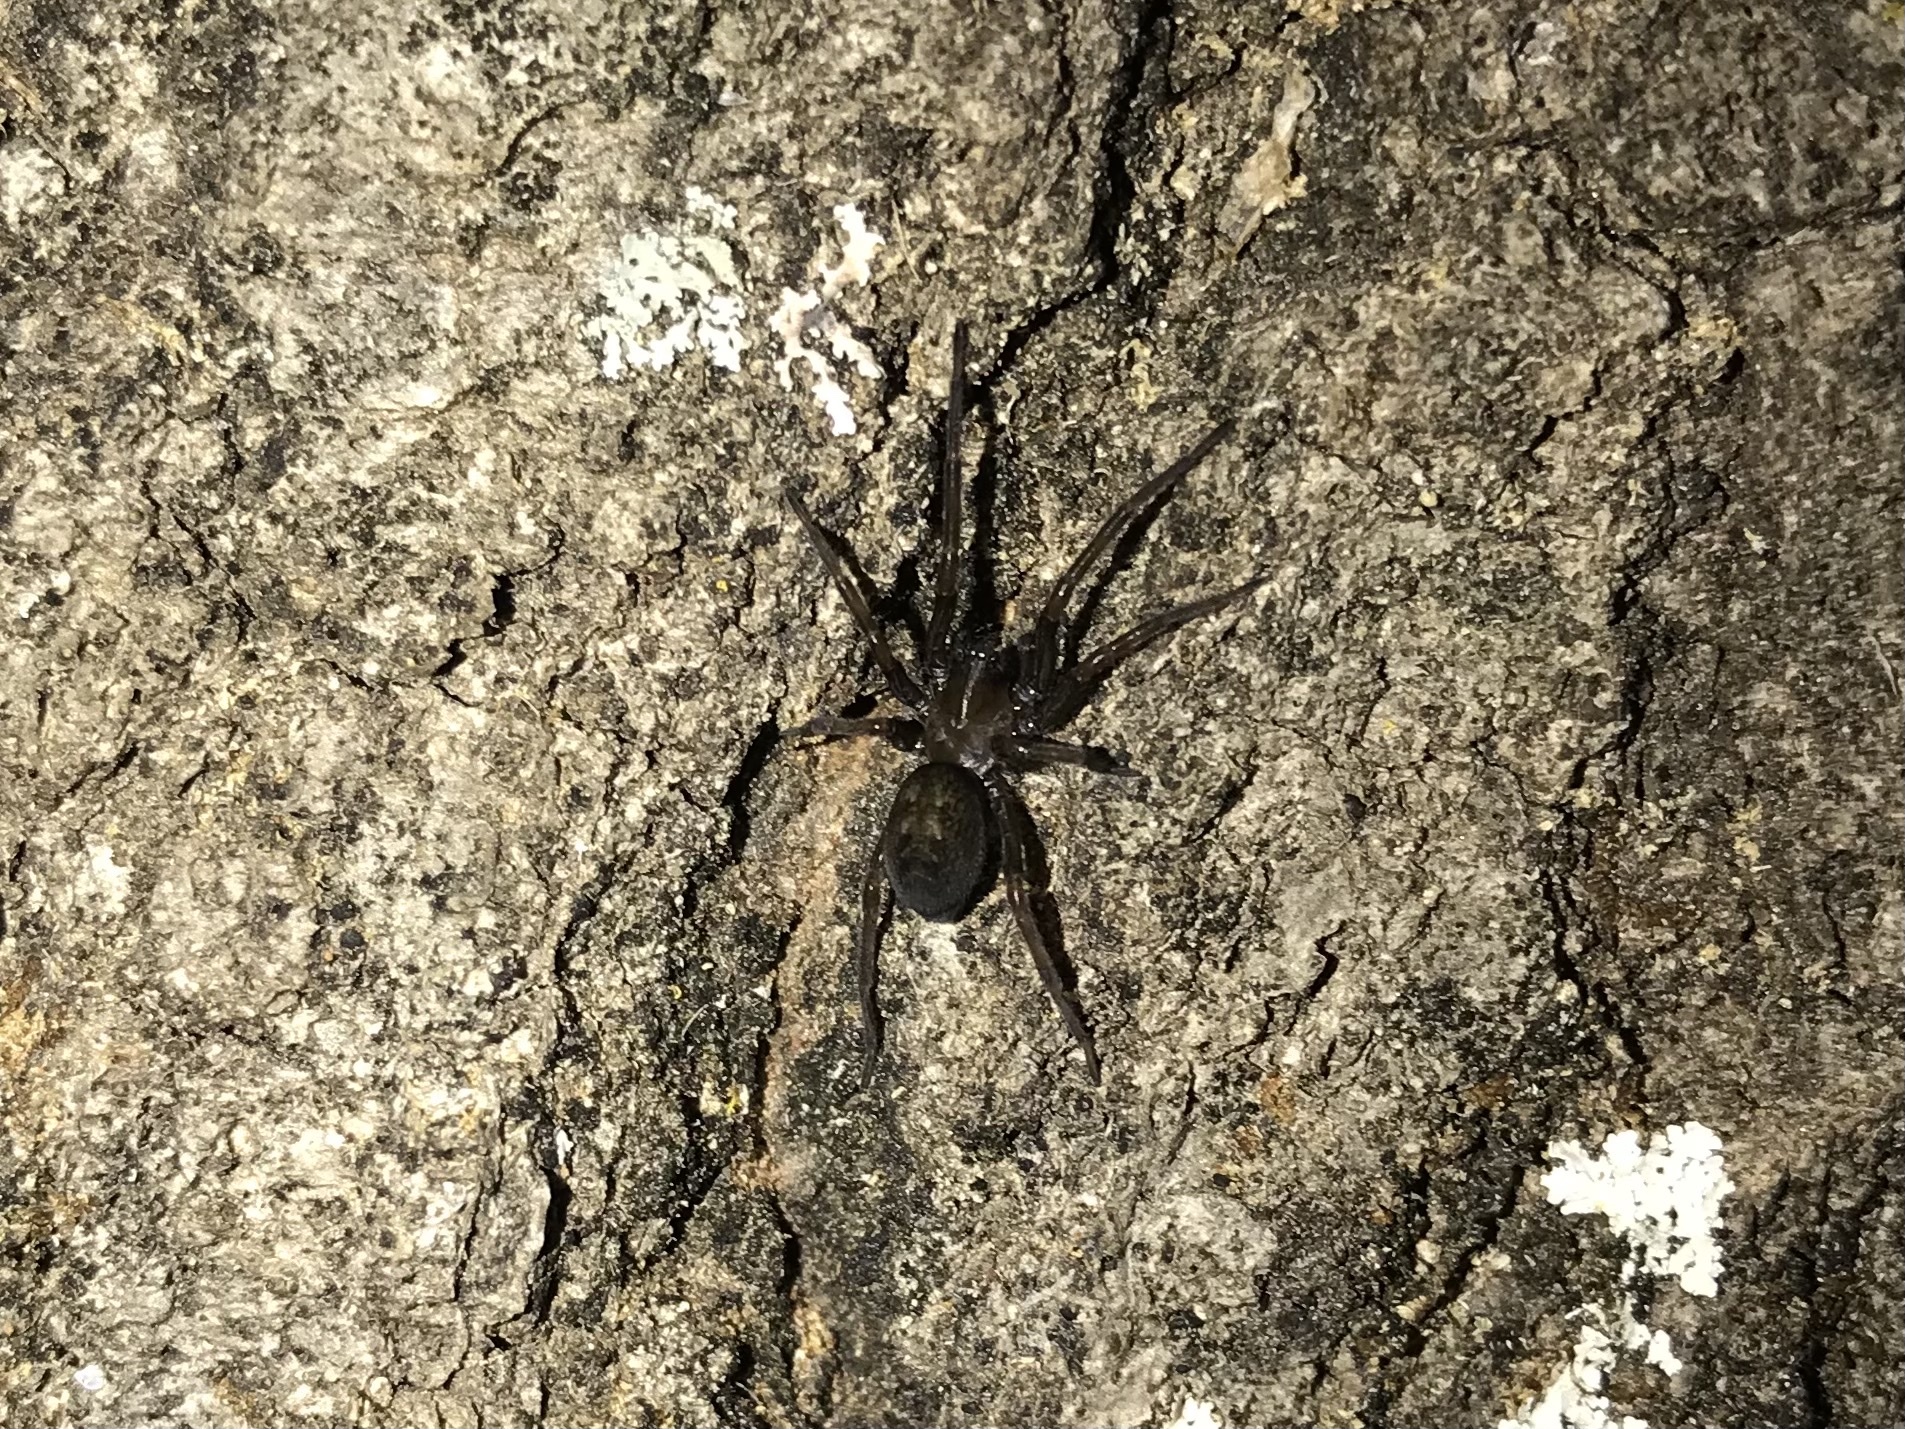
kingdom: Animalia
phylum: Arthropoda
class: Arachnida
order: Araneae
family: Desidae
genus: Metaltella
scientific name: Metaltella simoni
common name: Cribellate spider
